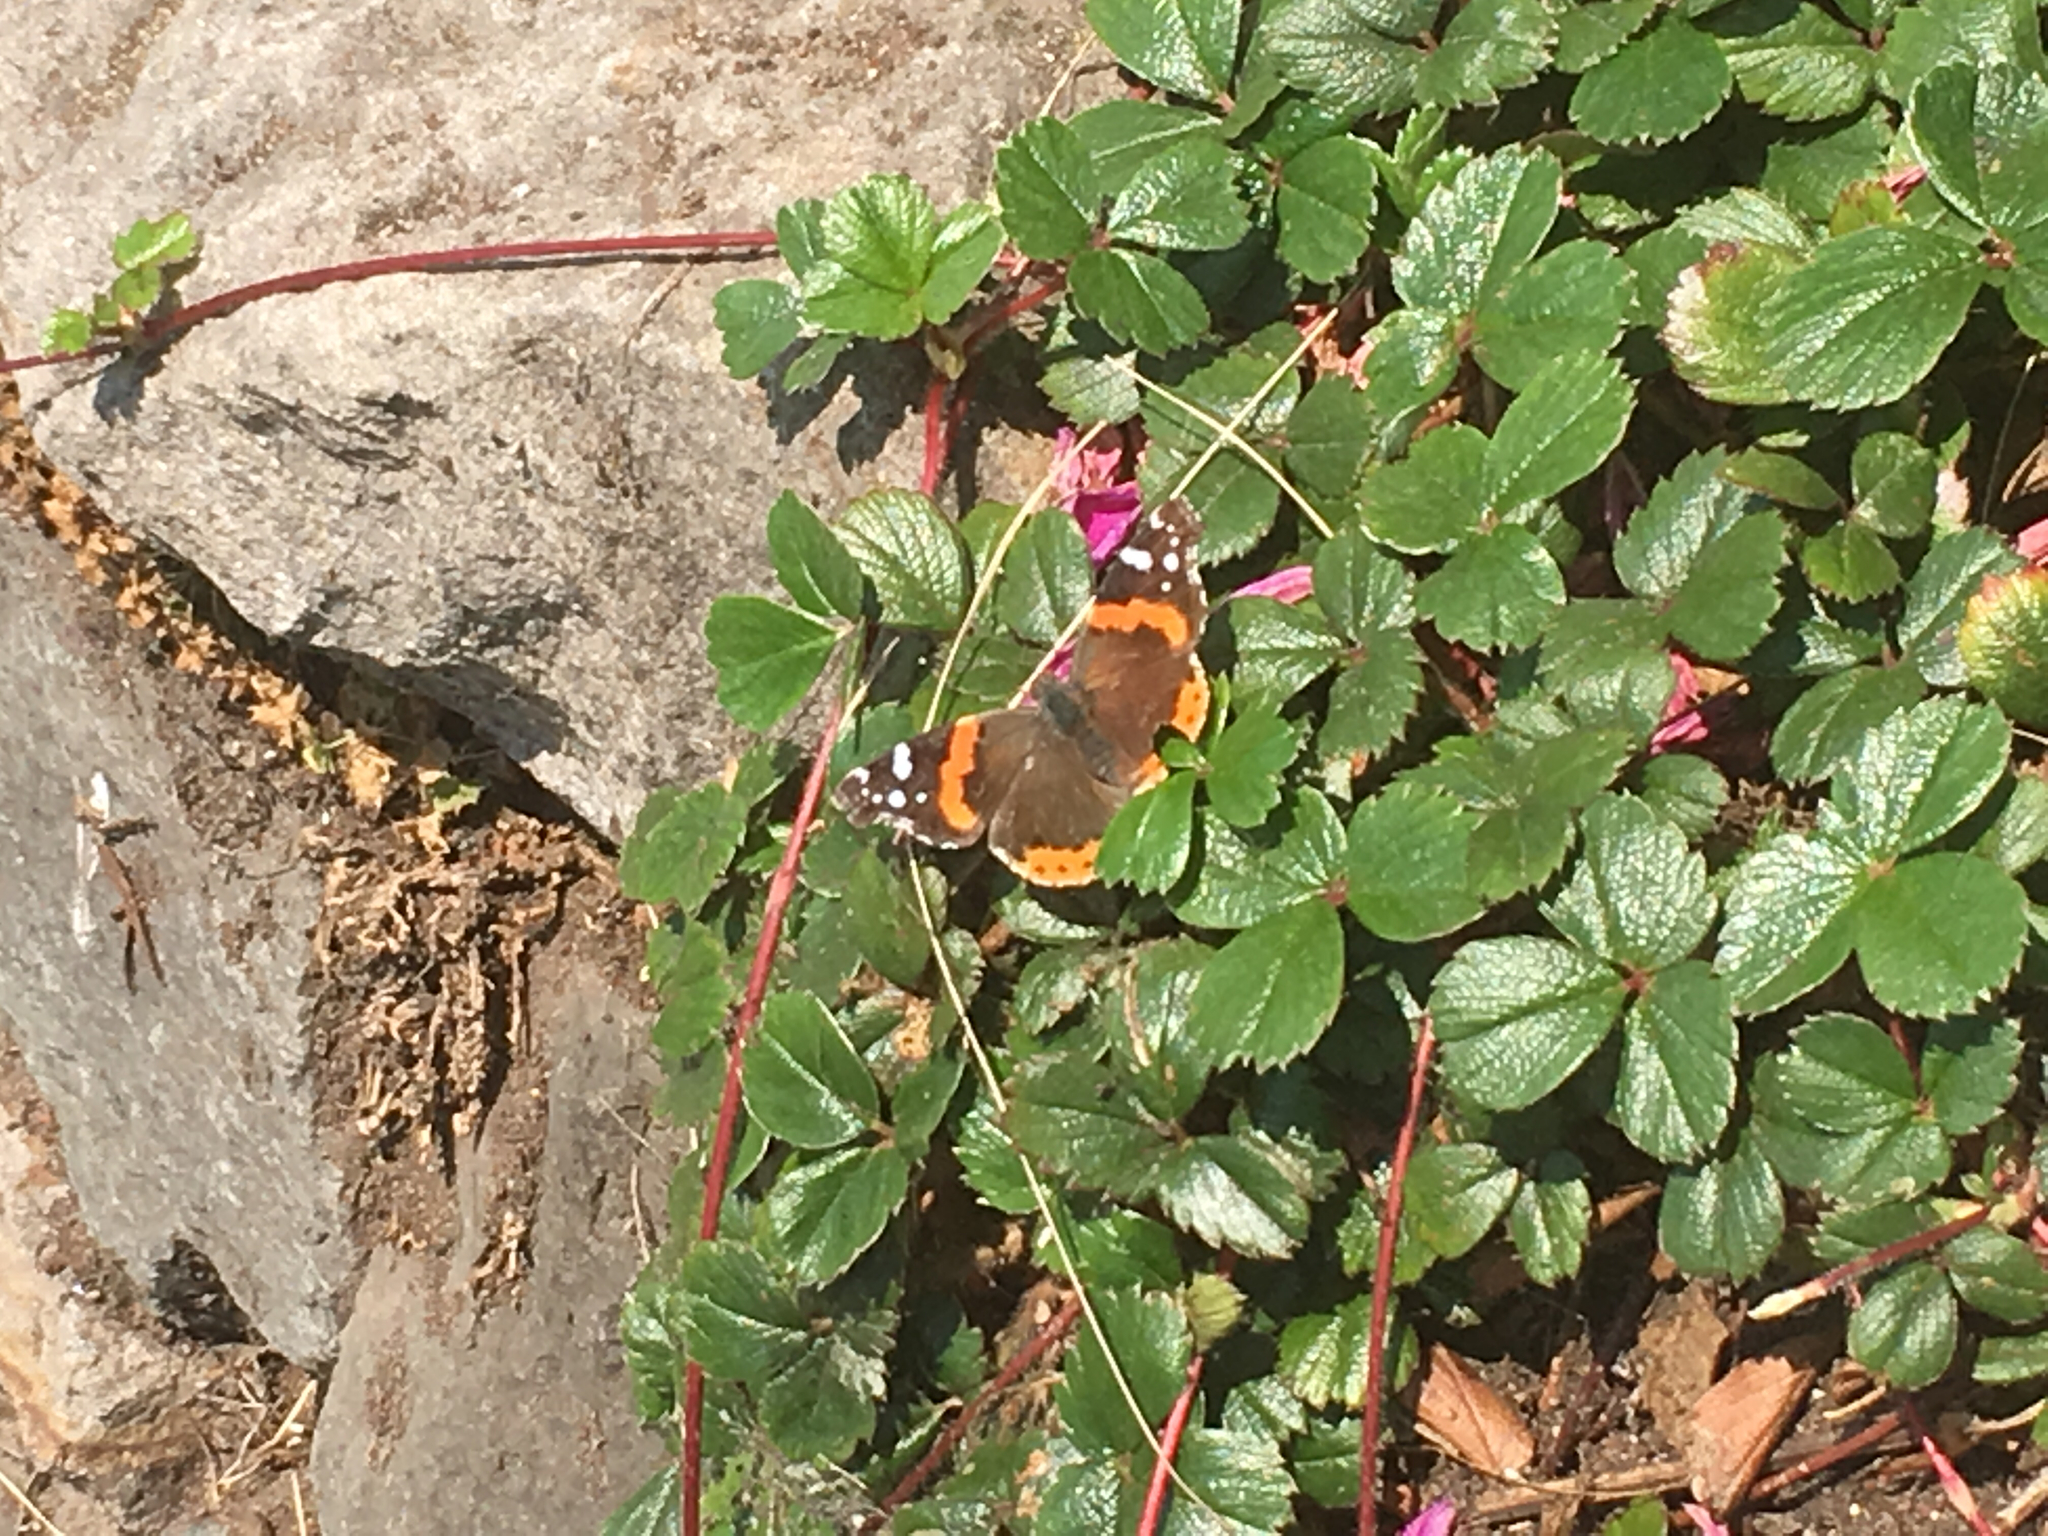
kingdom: Animalia
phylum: Arthropoda
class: Insecta
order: Lepidoptera
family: Nymphalidae
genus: Vanessa
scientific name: Vanessa atalanta
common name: Red admiral
